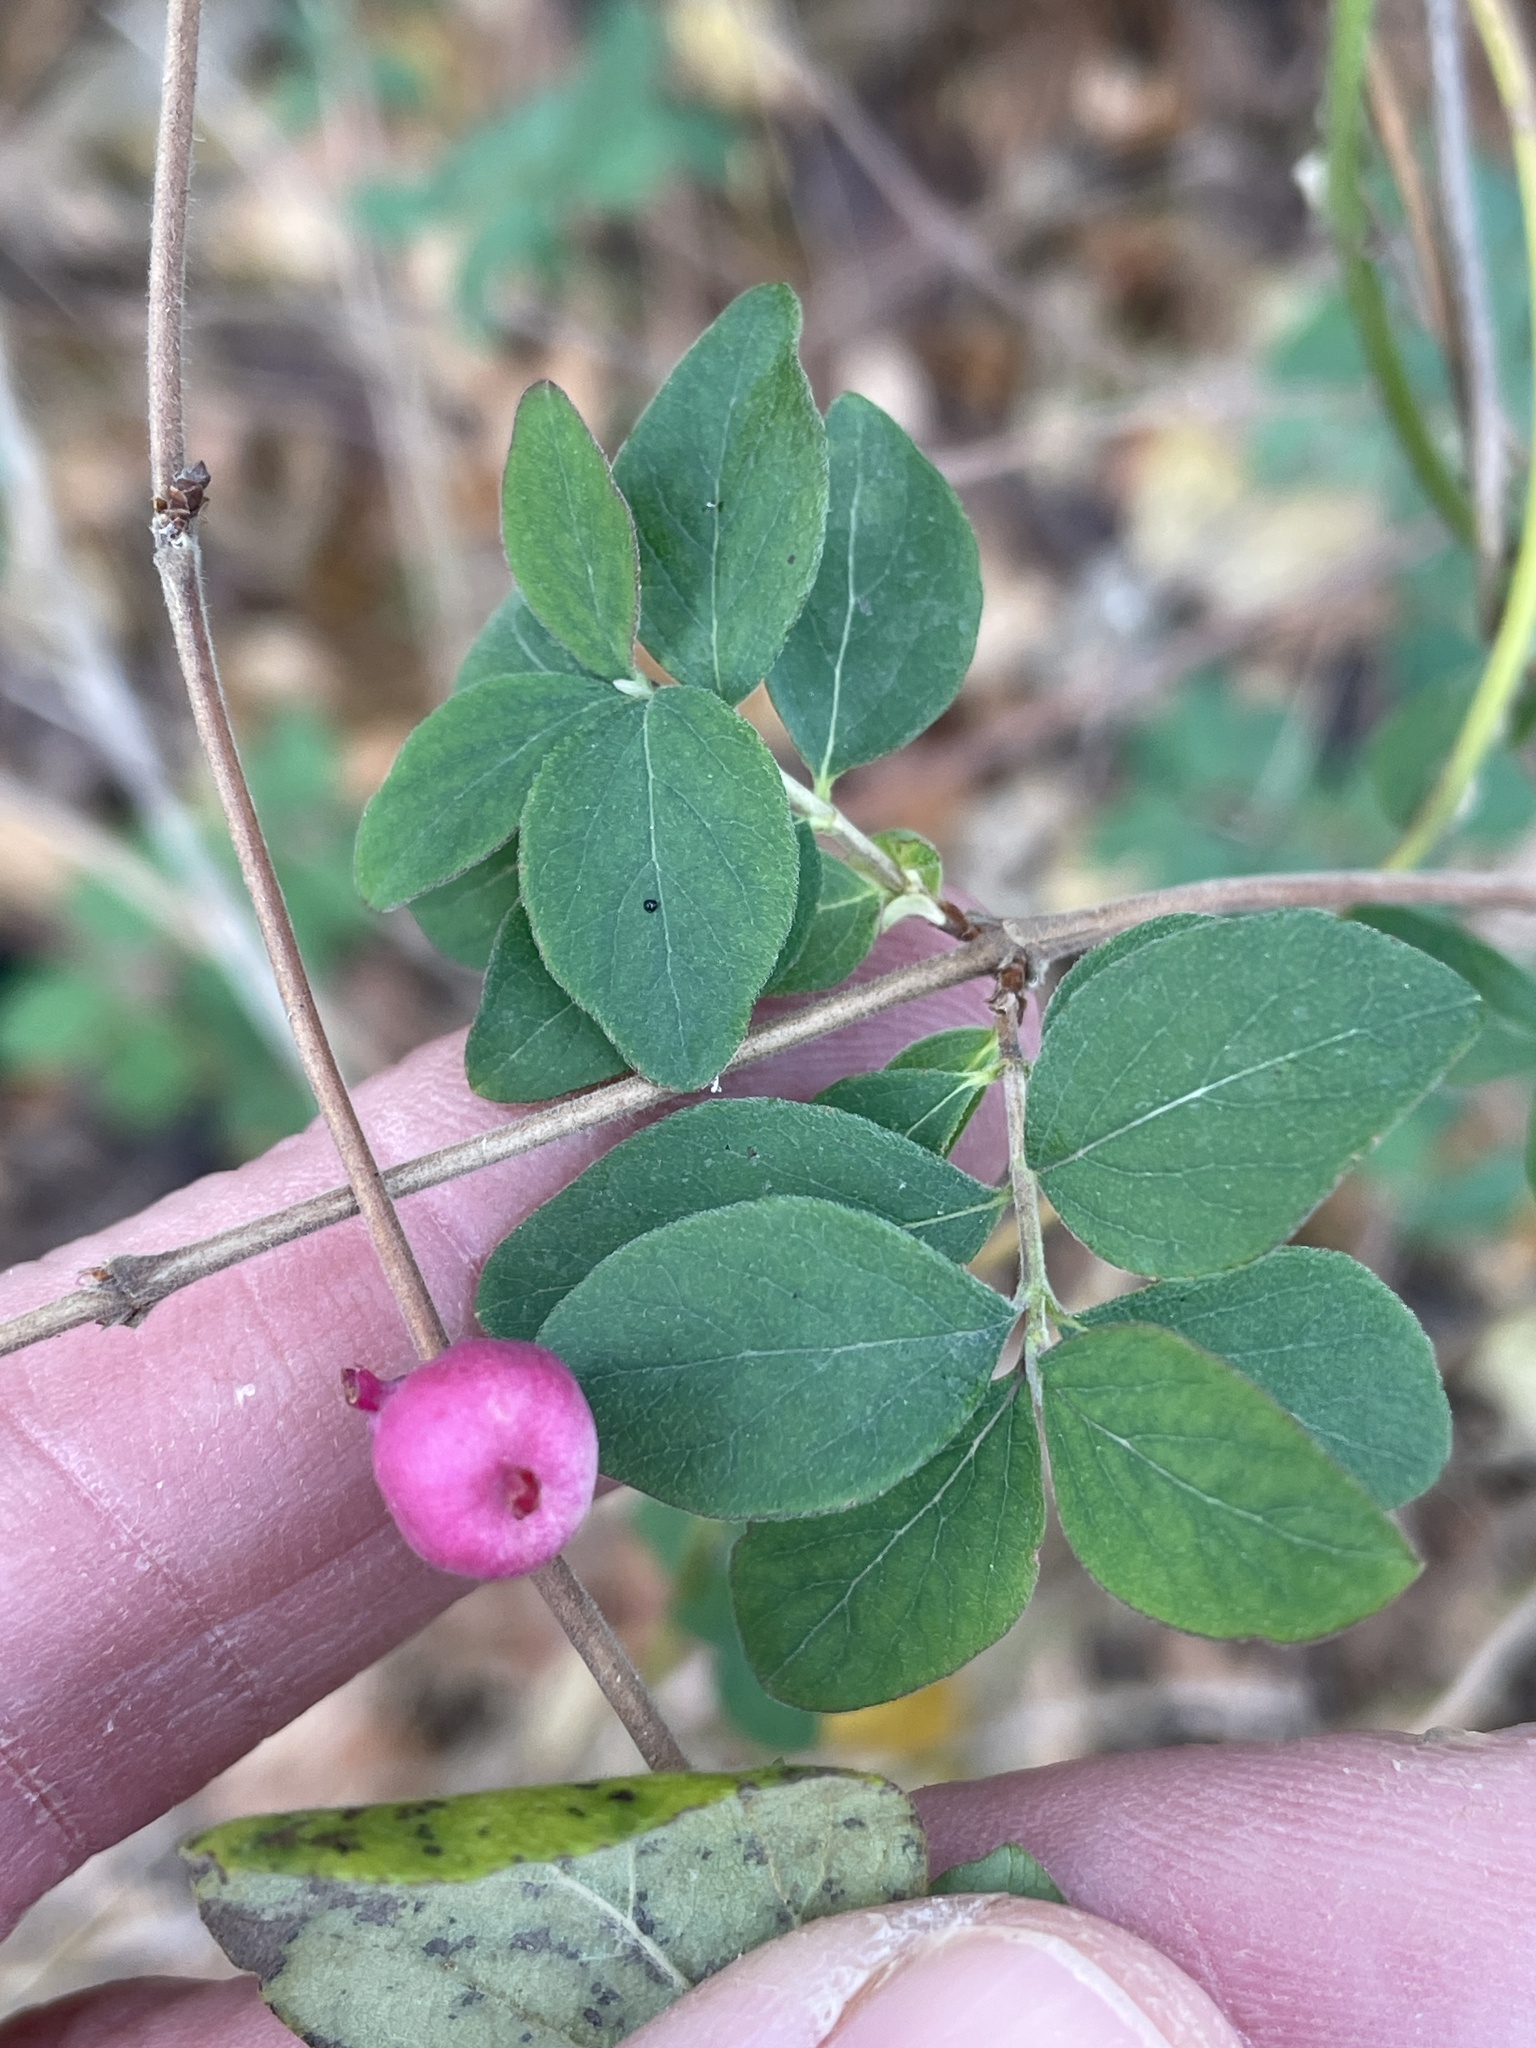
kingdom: Plantae
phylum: Tracheophyta
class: Magnoliopsida
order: Dipsacales
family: Caprifoliaceae
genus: Symphoricarpos
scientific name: Symphoricarpos orbiculatus
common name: Coralberry
